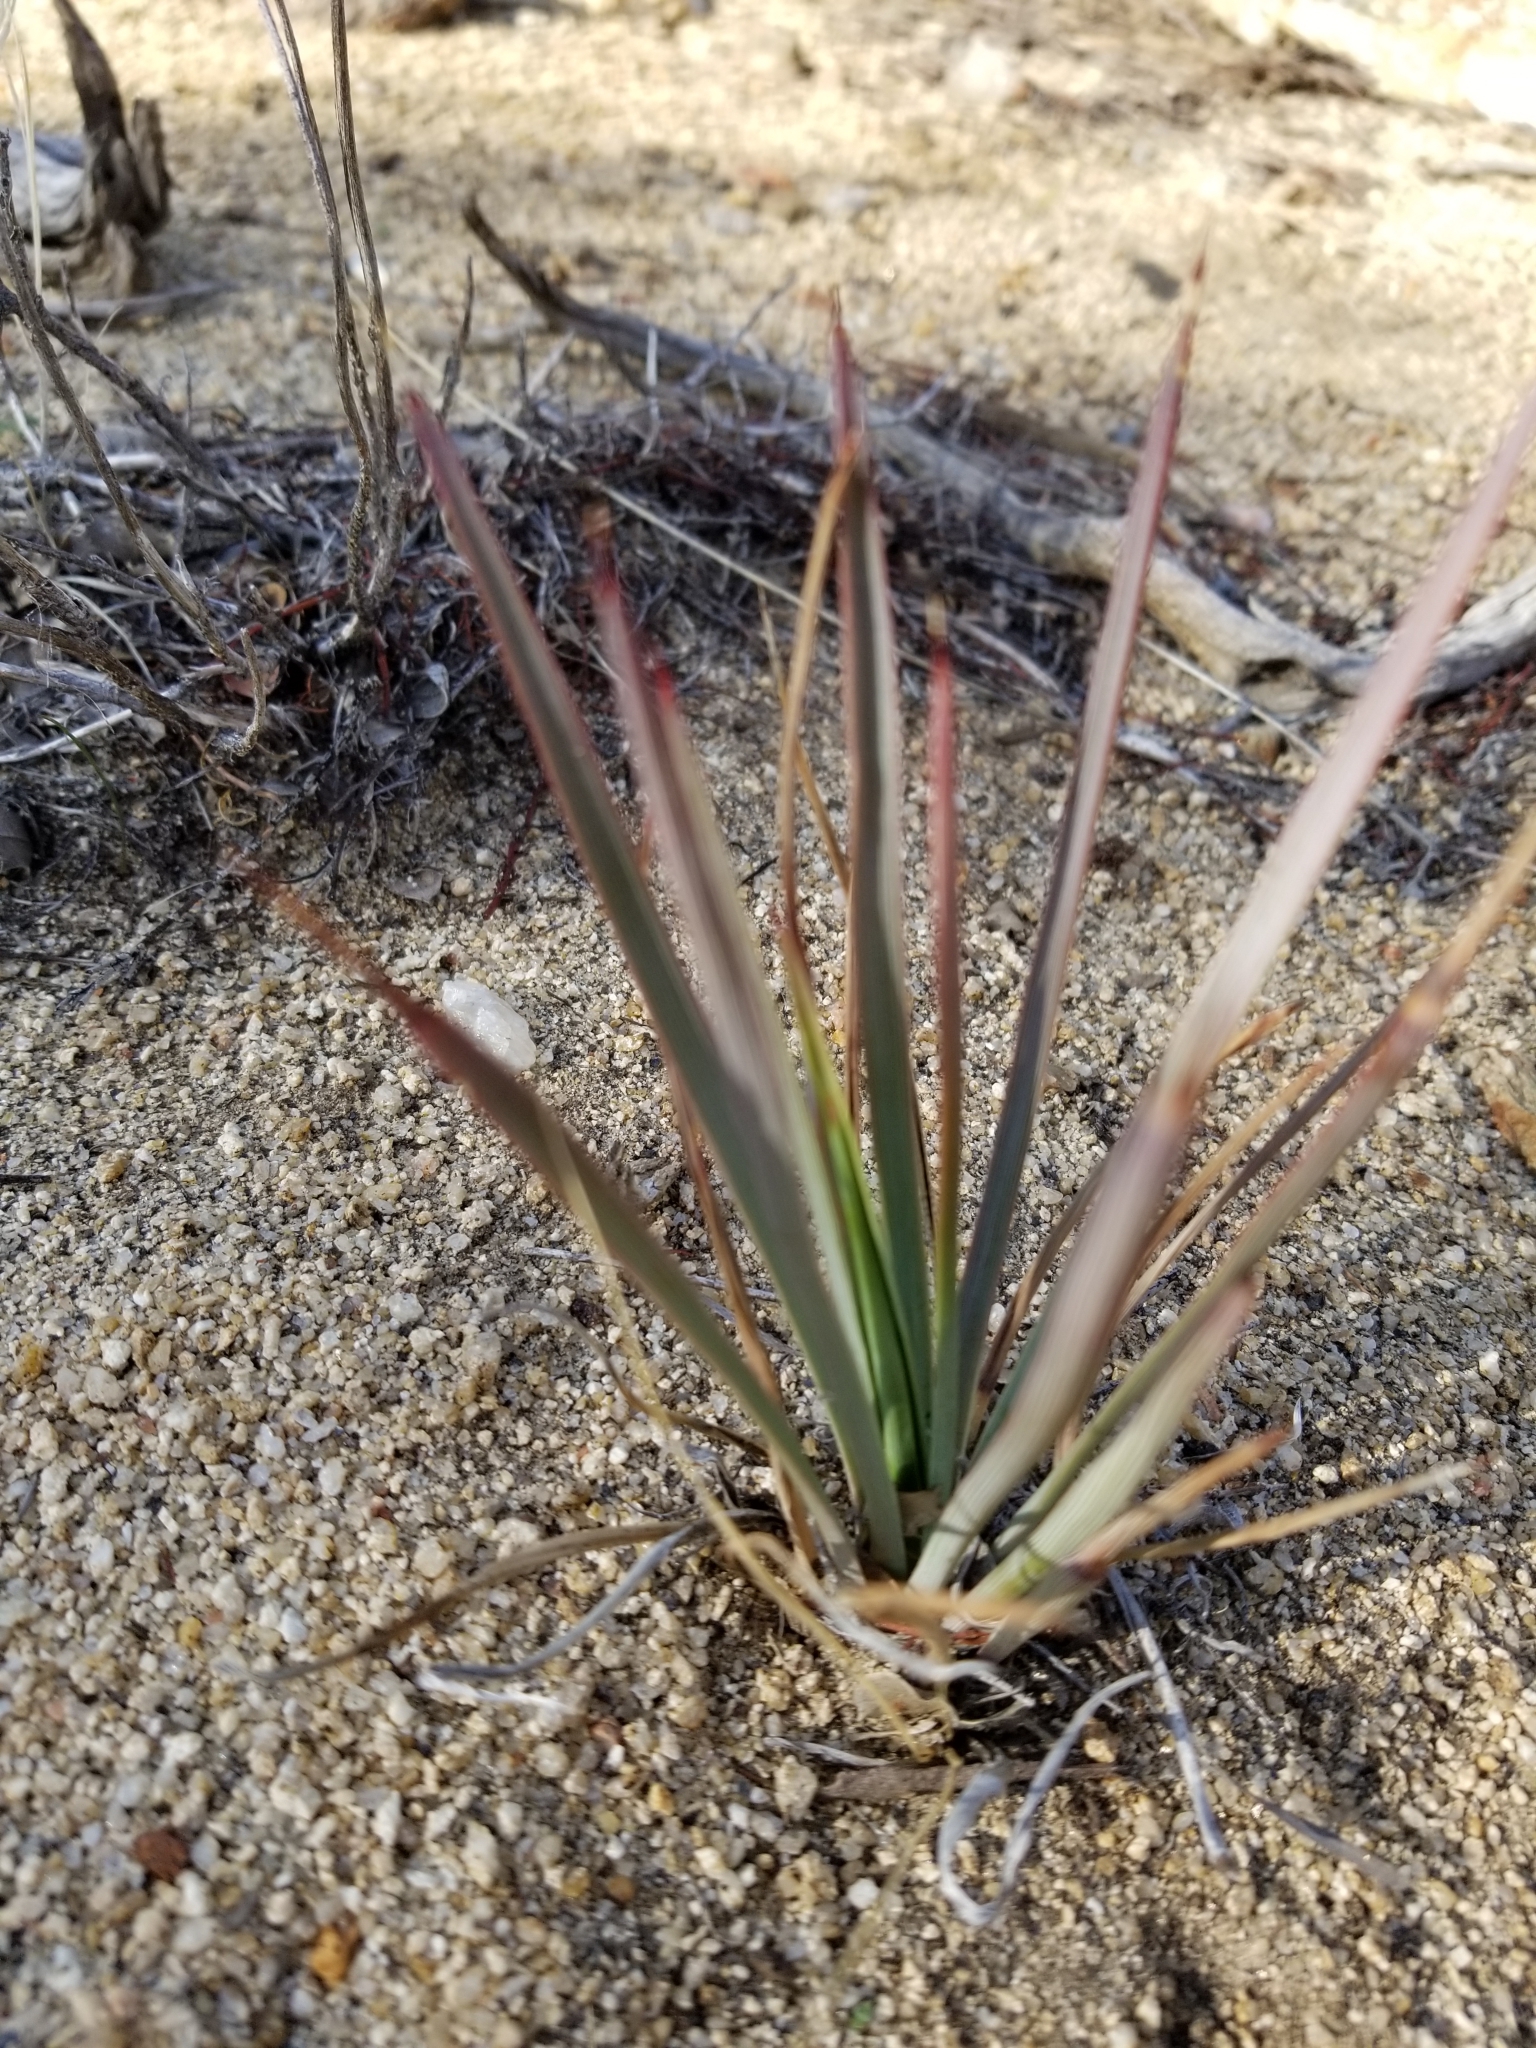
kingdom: Plantae
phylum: Tracheophyta
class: Liliopsida
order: Asparagales
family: Asparagaceae
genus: Hesperoyucca
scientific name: Hesperoyucca whipplei
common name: Our lord's-candle
